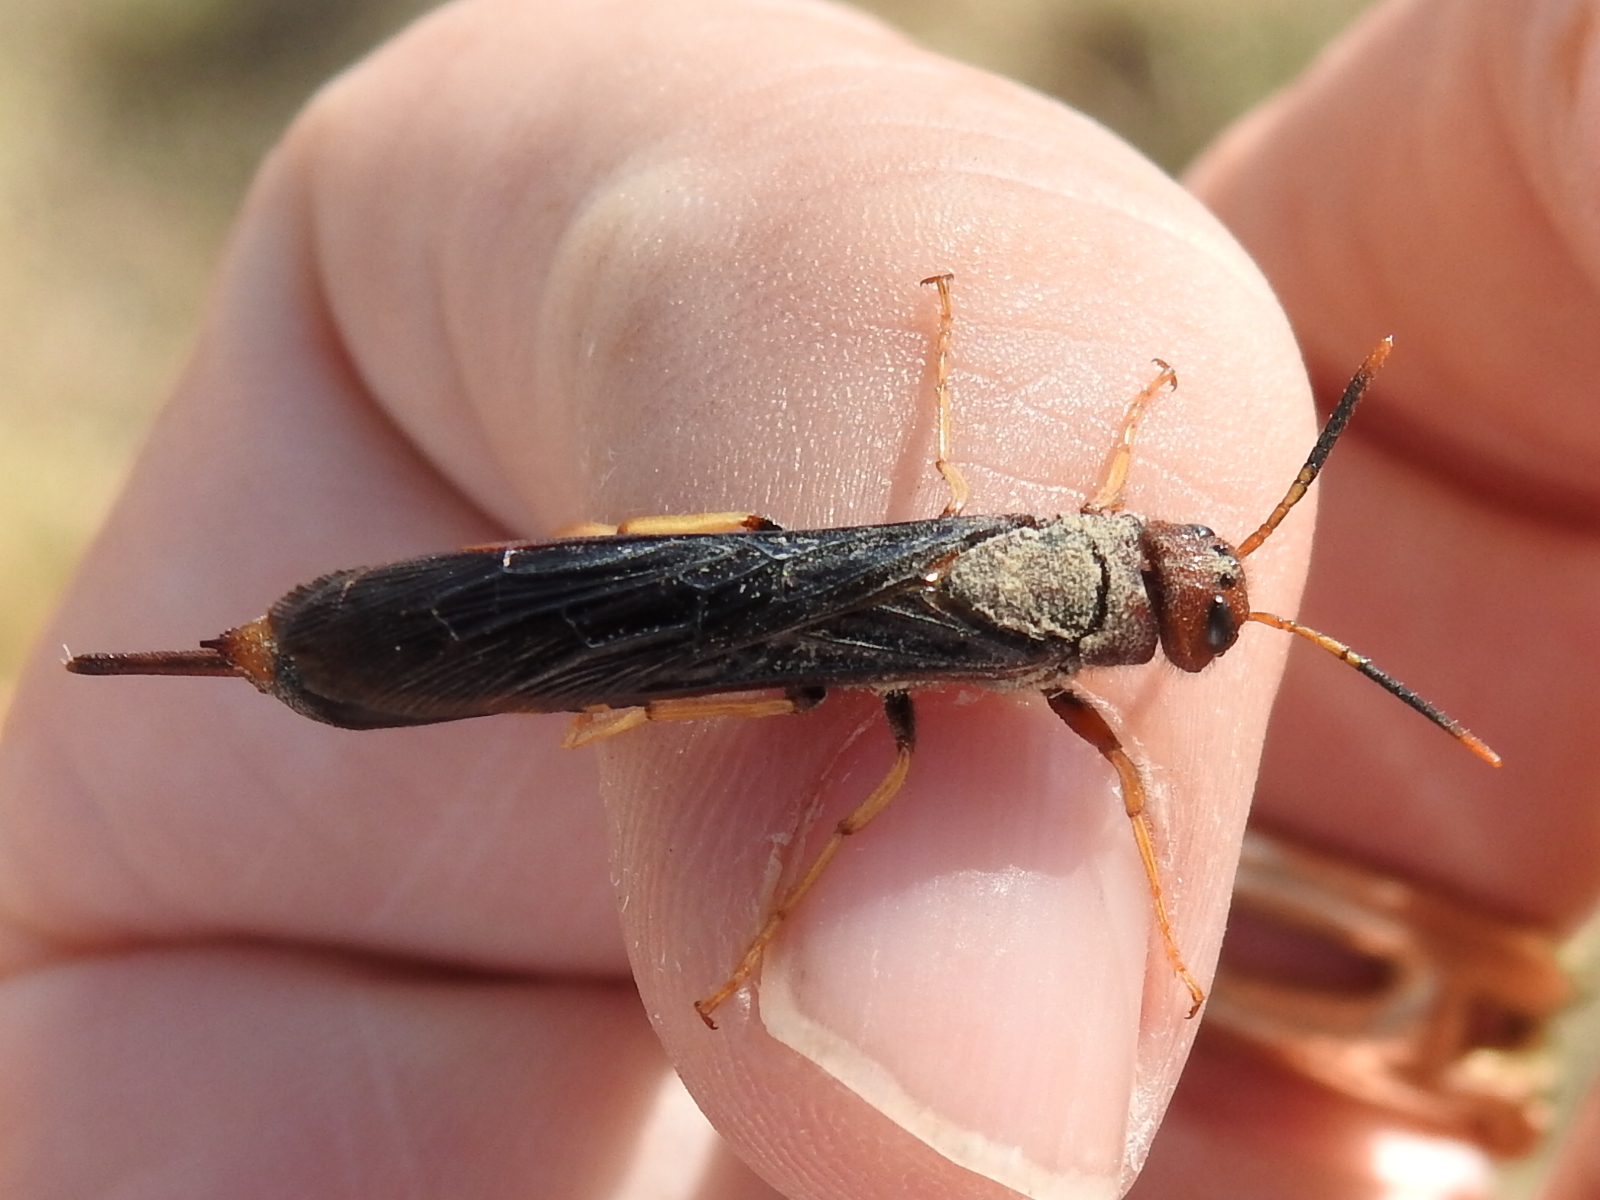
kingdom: Animalia
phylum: Arthropoda
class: Insecta
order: Hymenoptera
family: Siricidae
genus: Tremex
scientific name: Tremex columba
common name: Wasp
